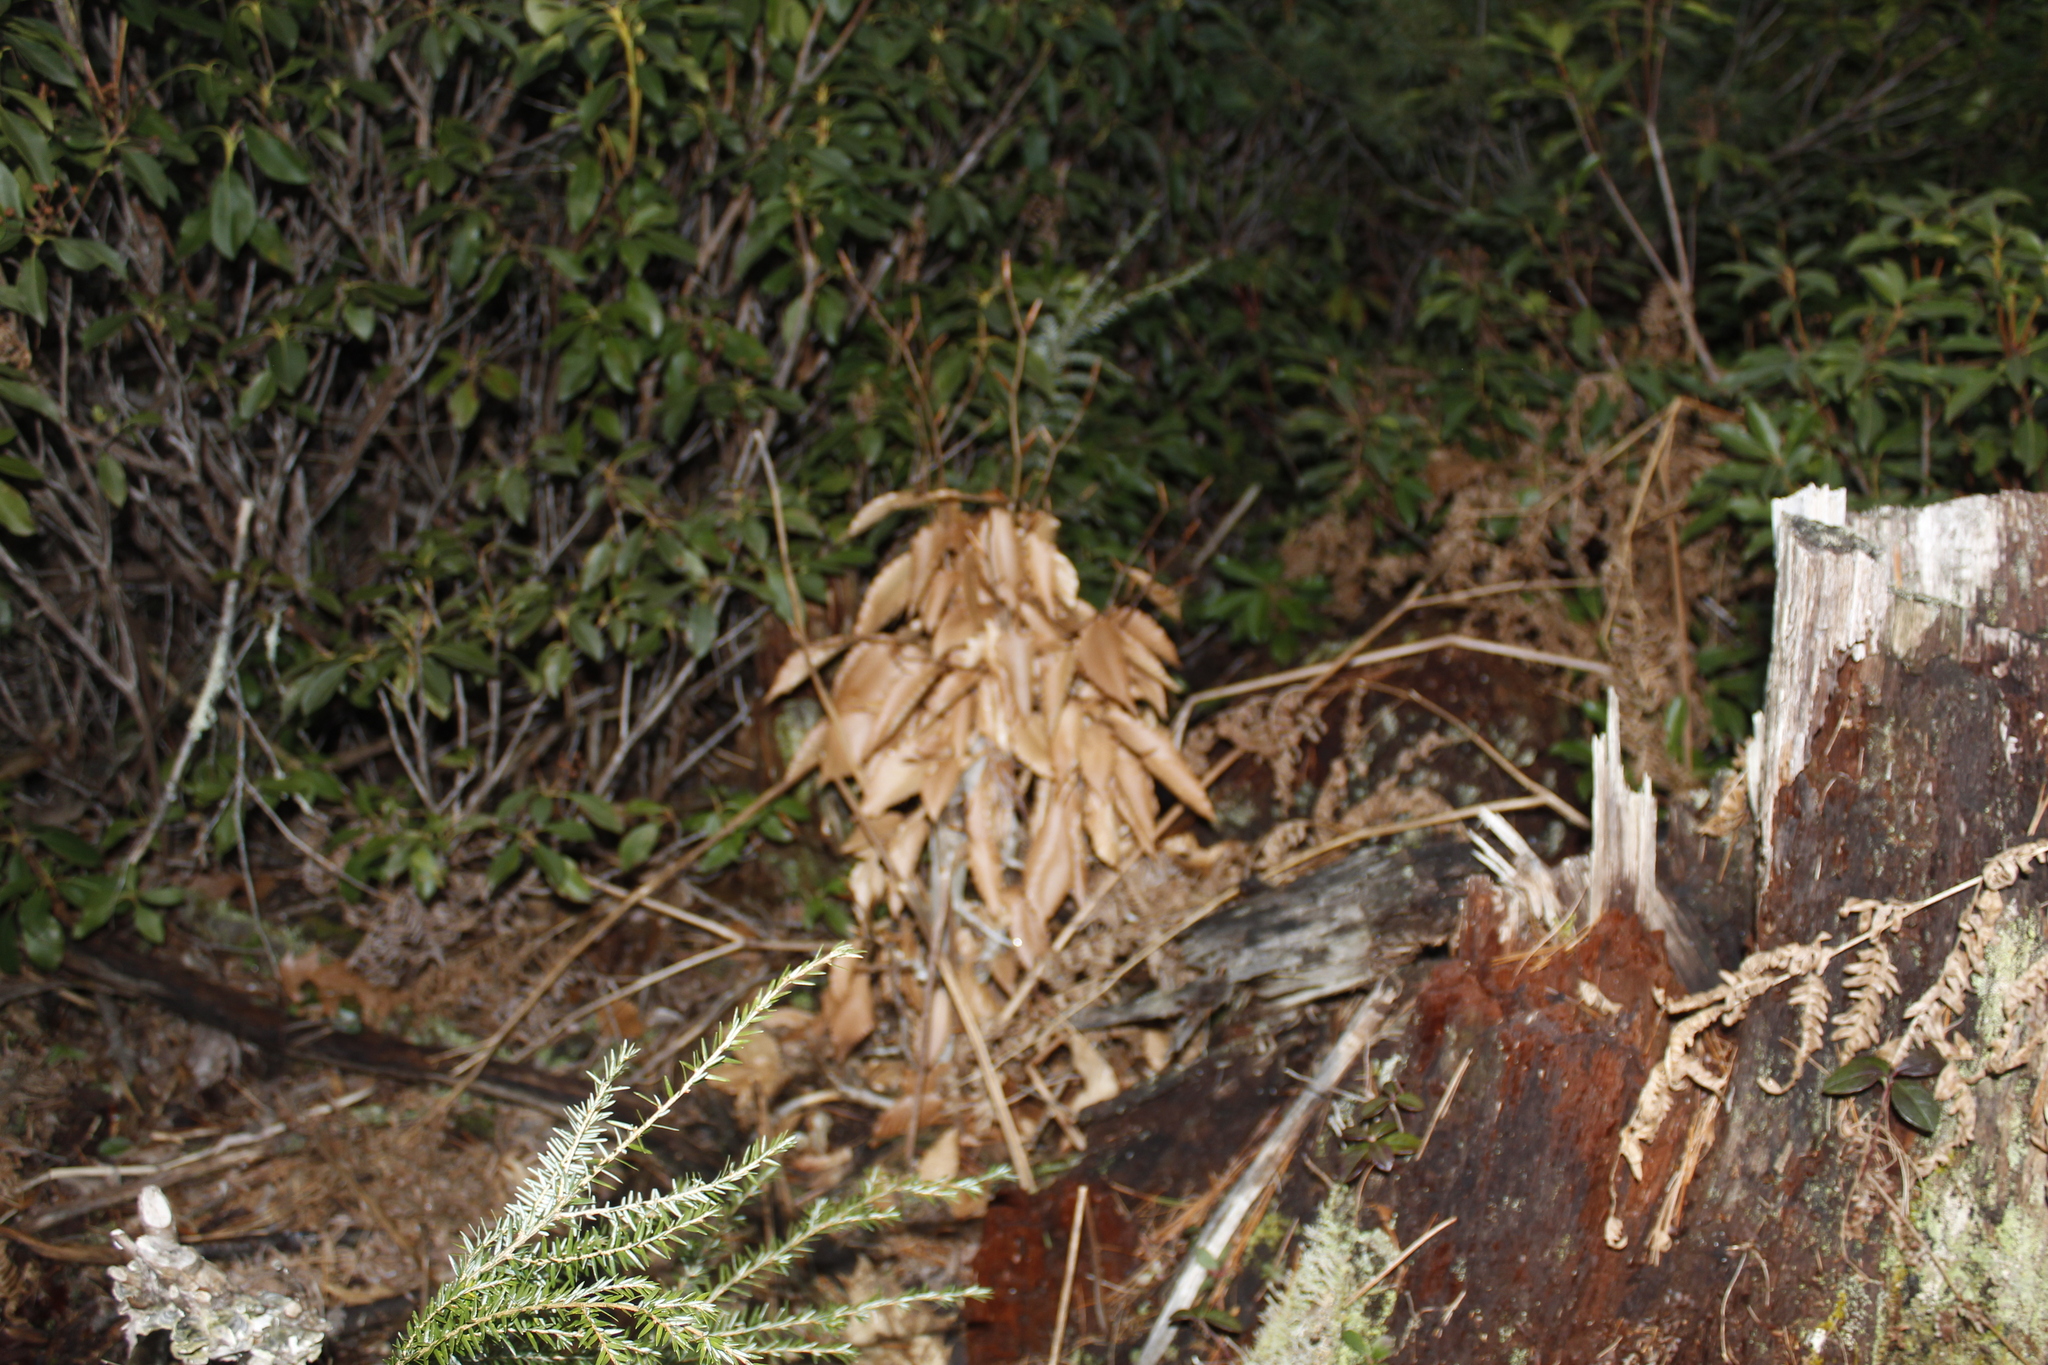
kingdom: Plantae
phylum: Tracheophyta
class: Magnoliopsida
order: Fagales
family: Fagaceae
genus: Fagus
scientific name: Fagus grandifolia
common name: American beech
